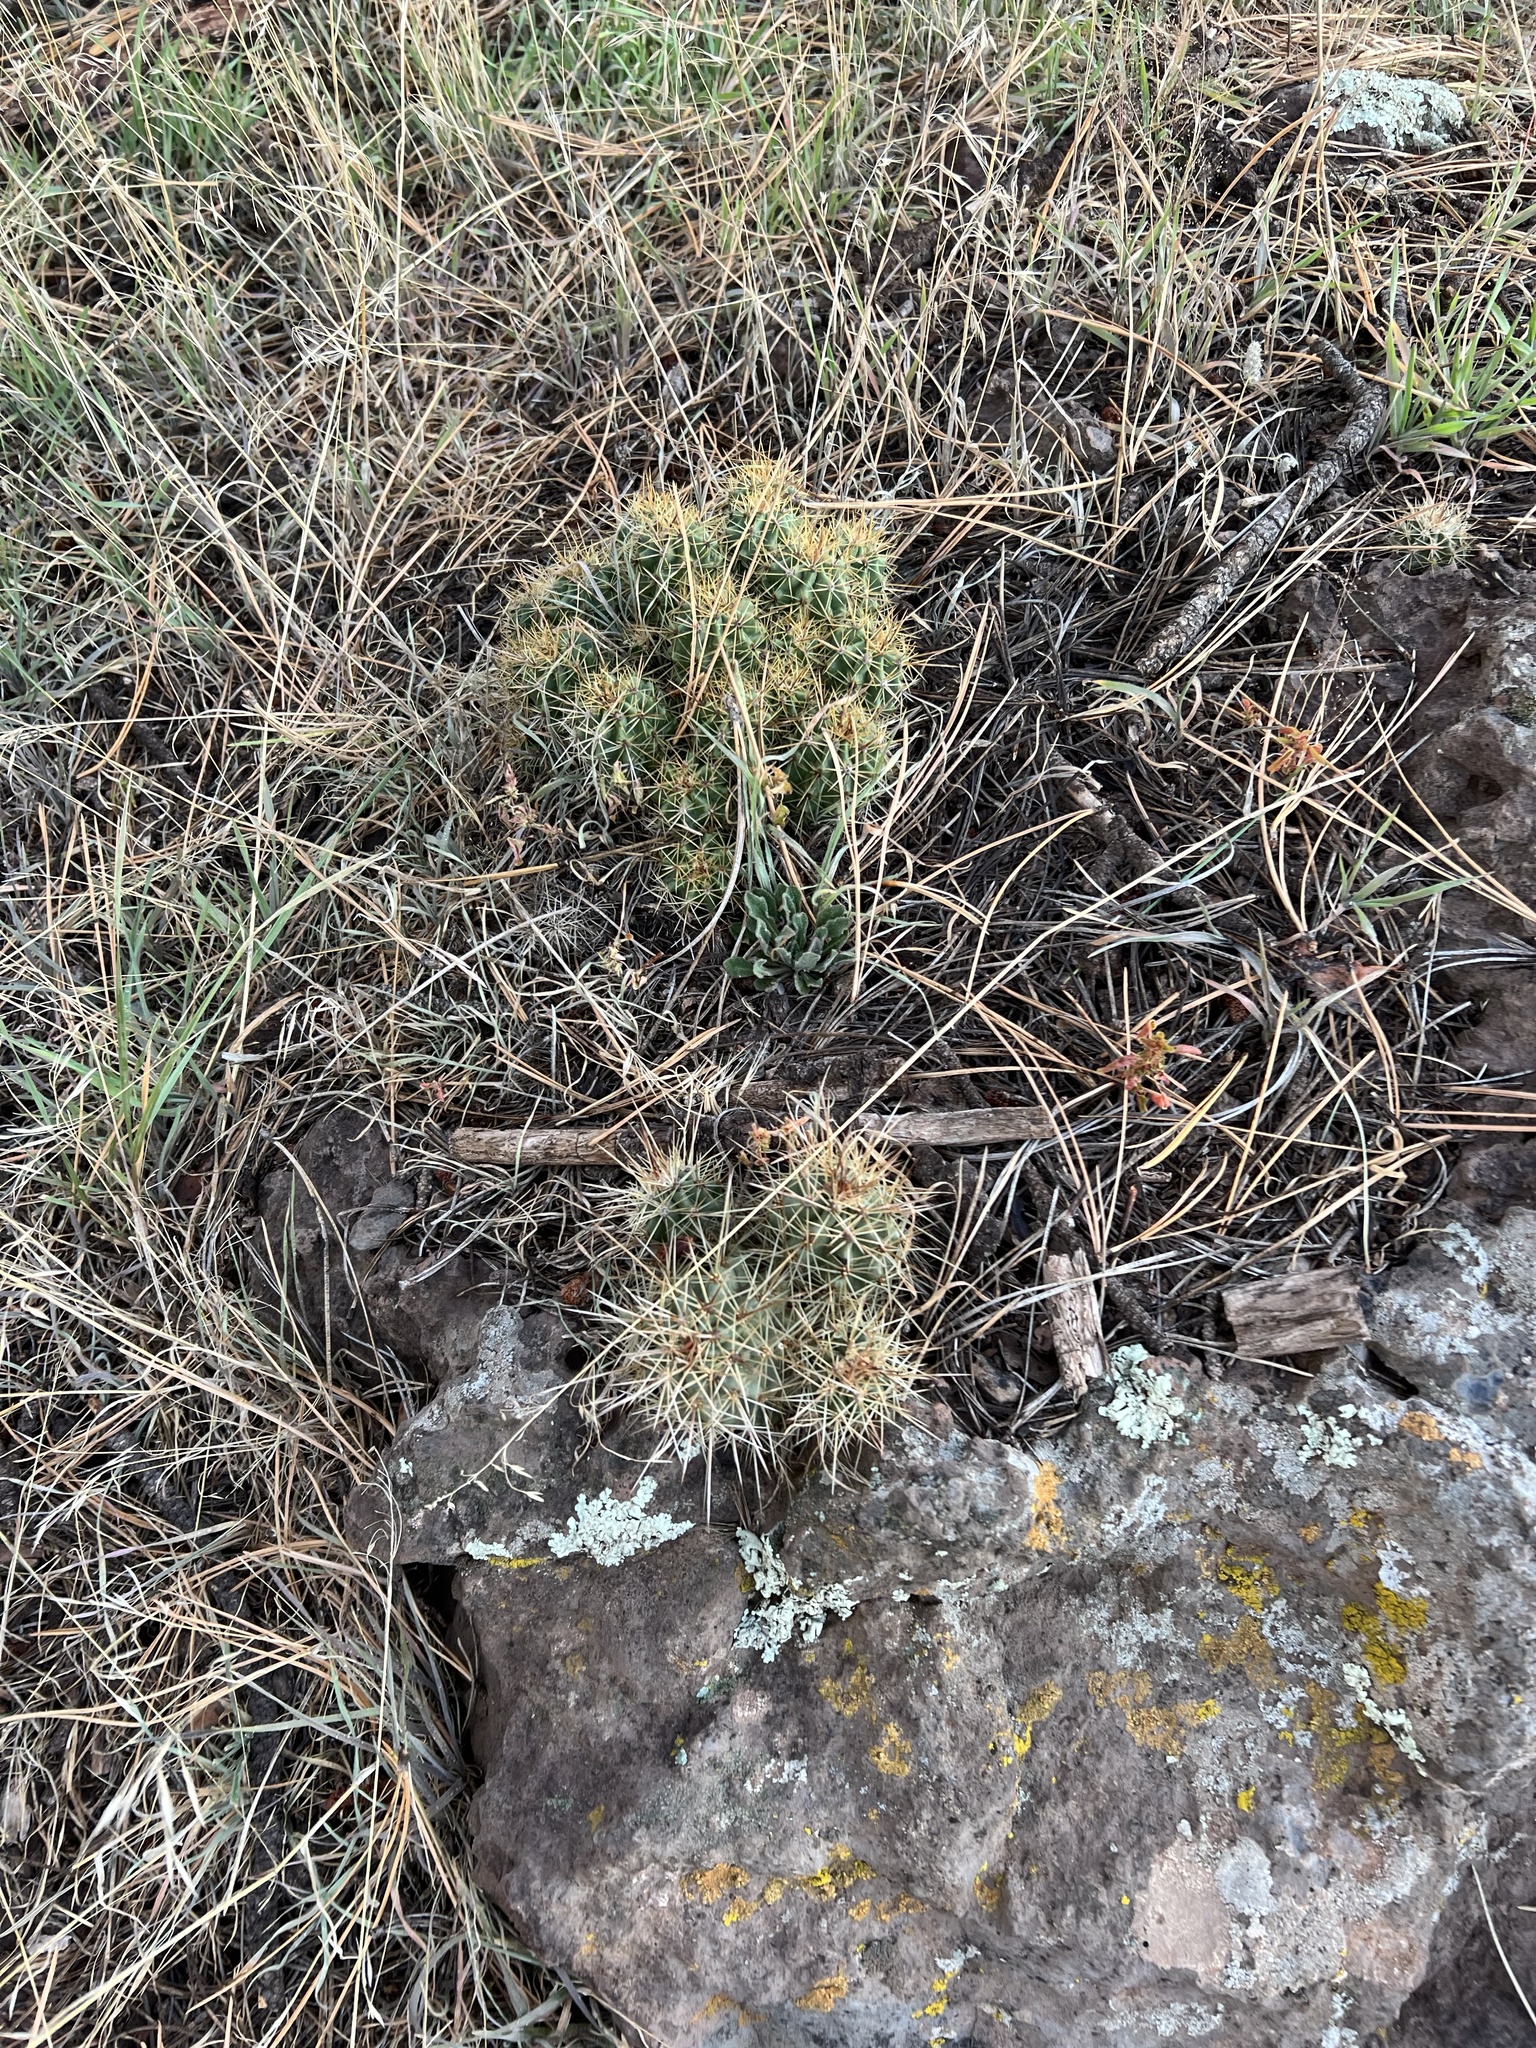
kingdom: Plantae
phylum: Tracheophyta
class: Magnoliopsida
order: Caryophyllales
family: Cactaceae
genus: Echinocereus
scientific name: Echinocereus bakeri
